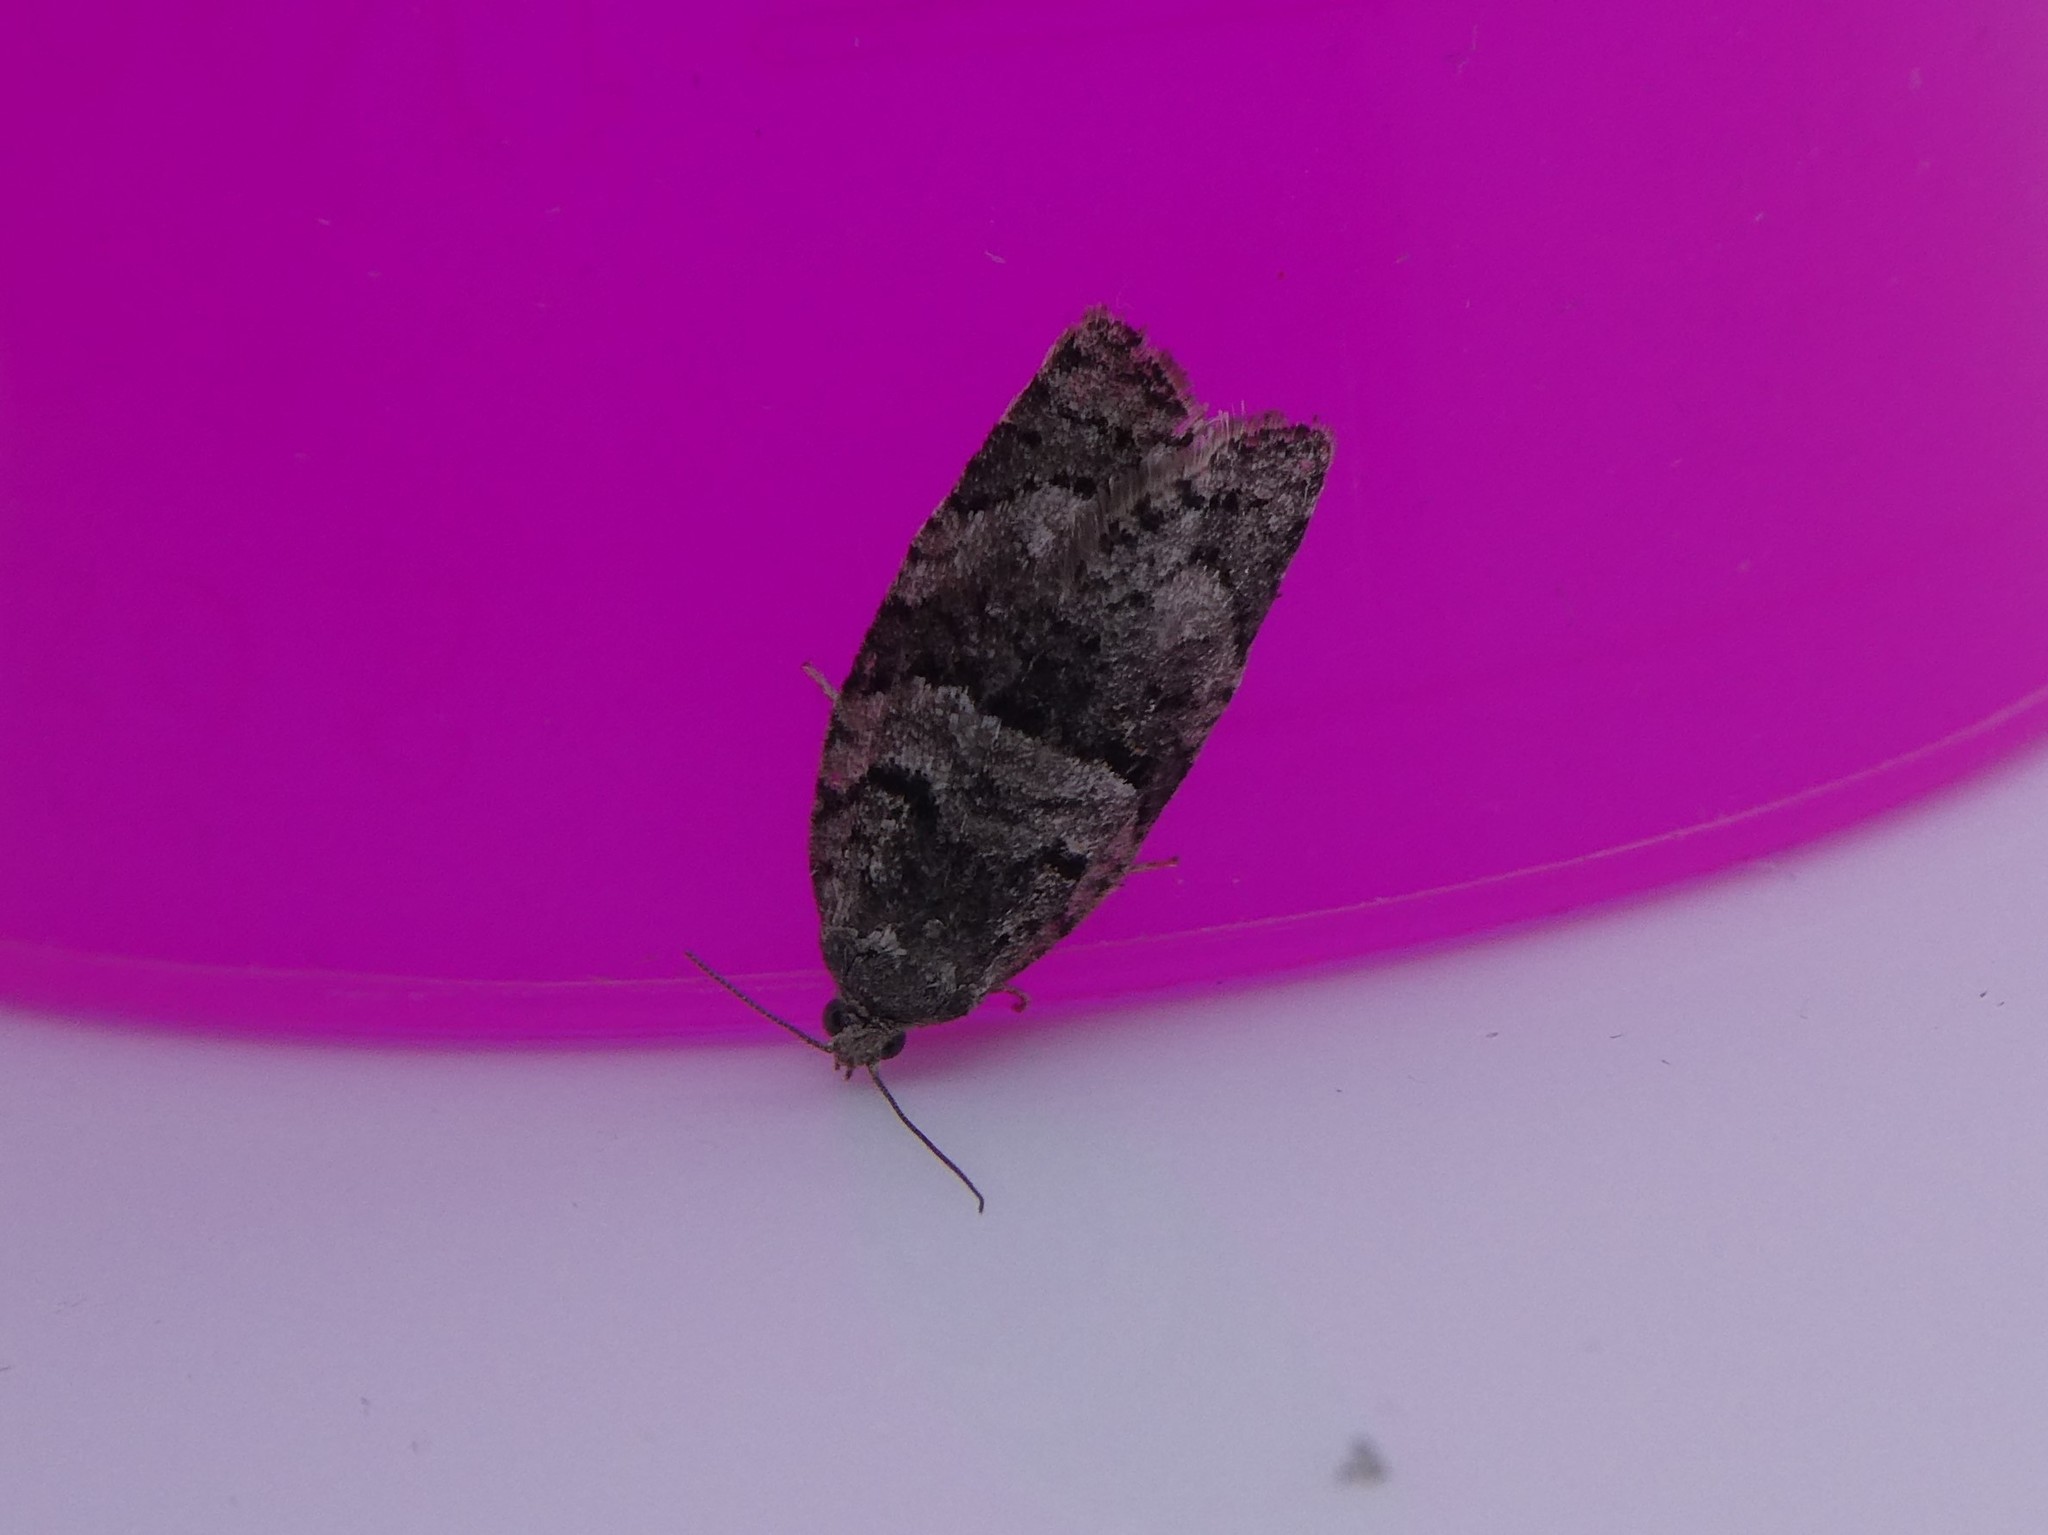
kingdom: Animalia
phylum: Arthropoda
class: Insecta
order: Lepidoptera
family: Tortricidae
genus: Syndemis
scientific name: Syndemis afflictana
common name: Gray leafroller moth
